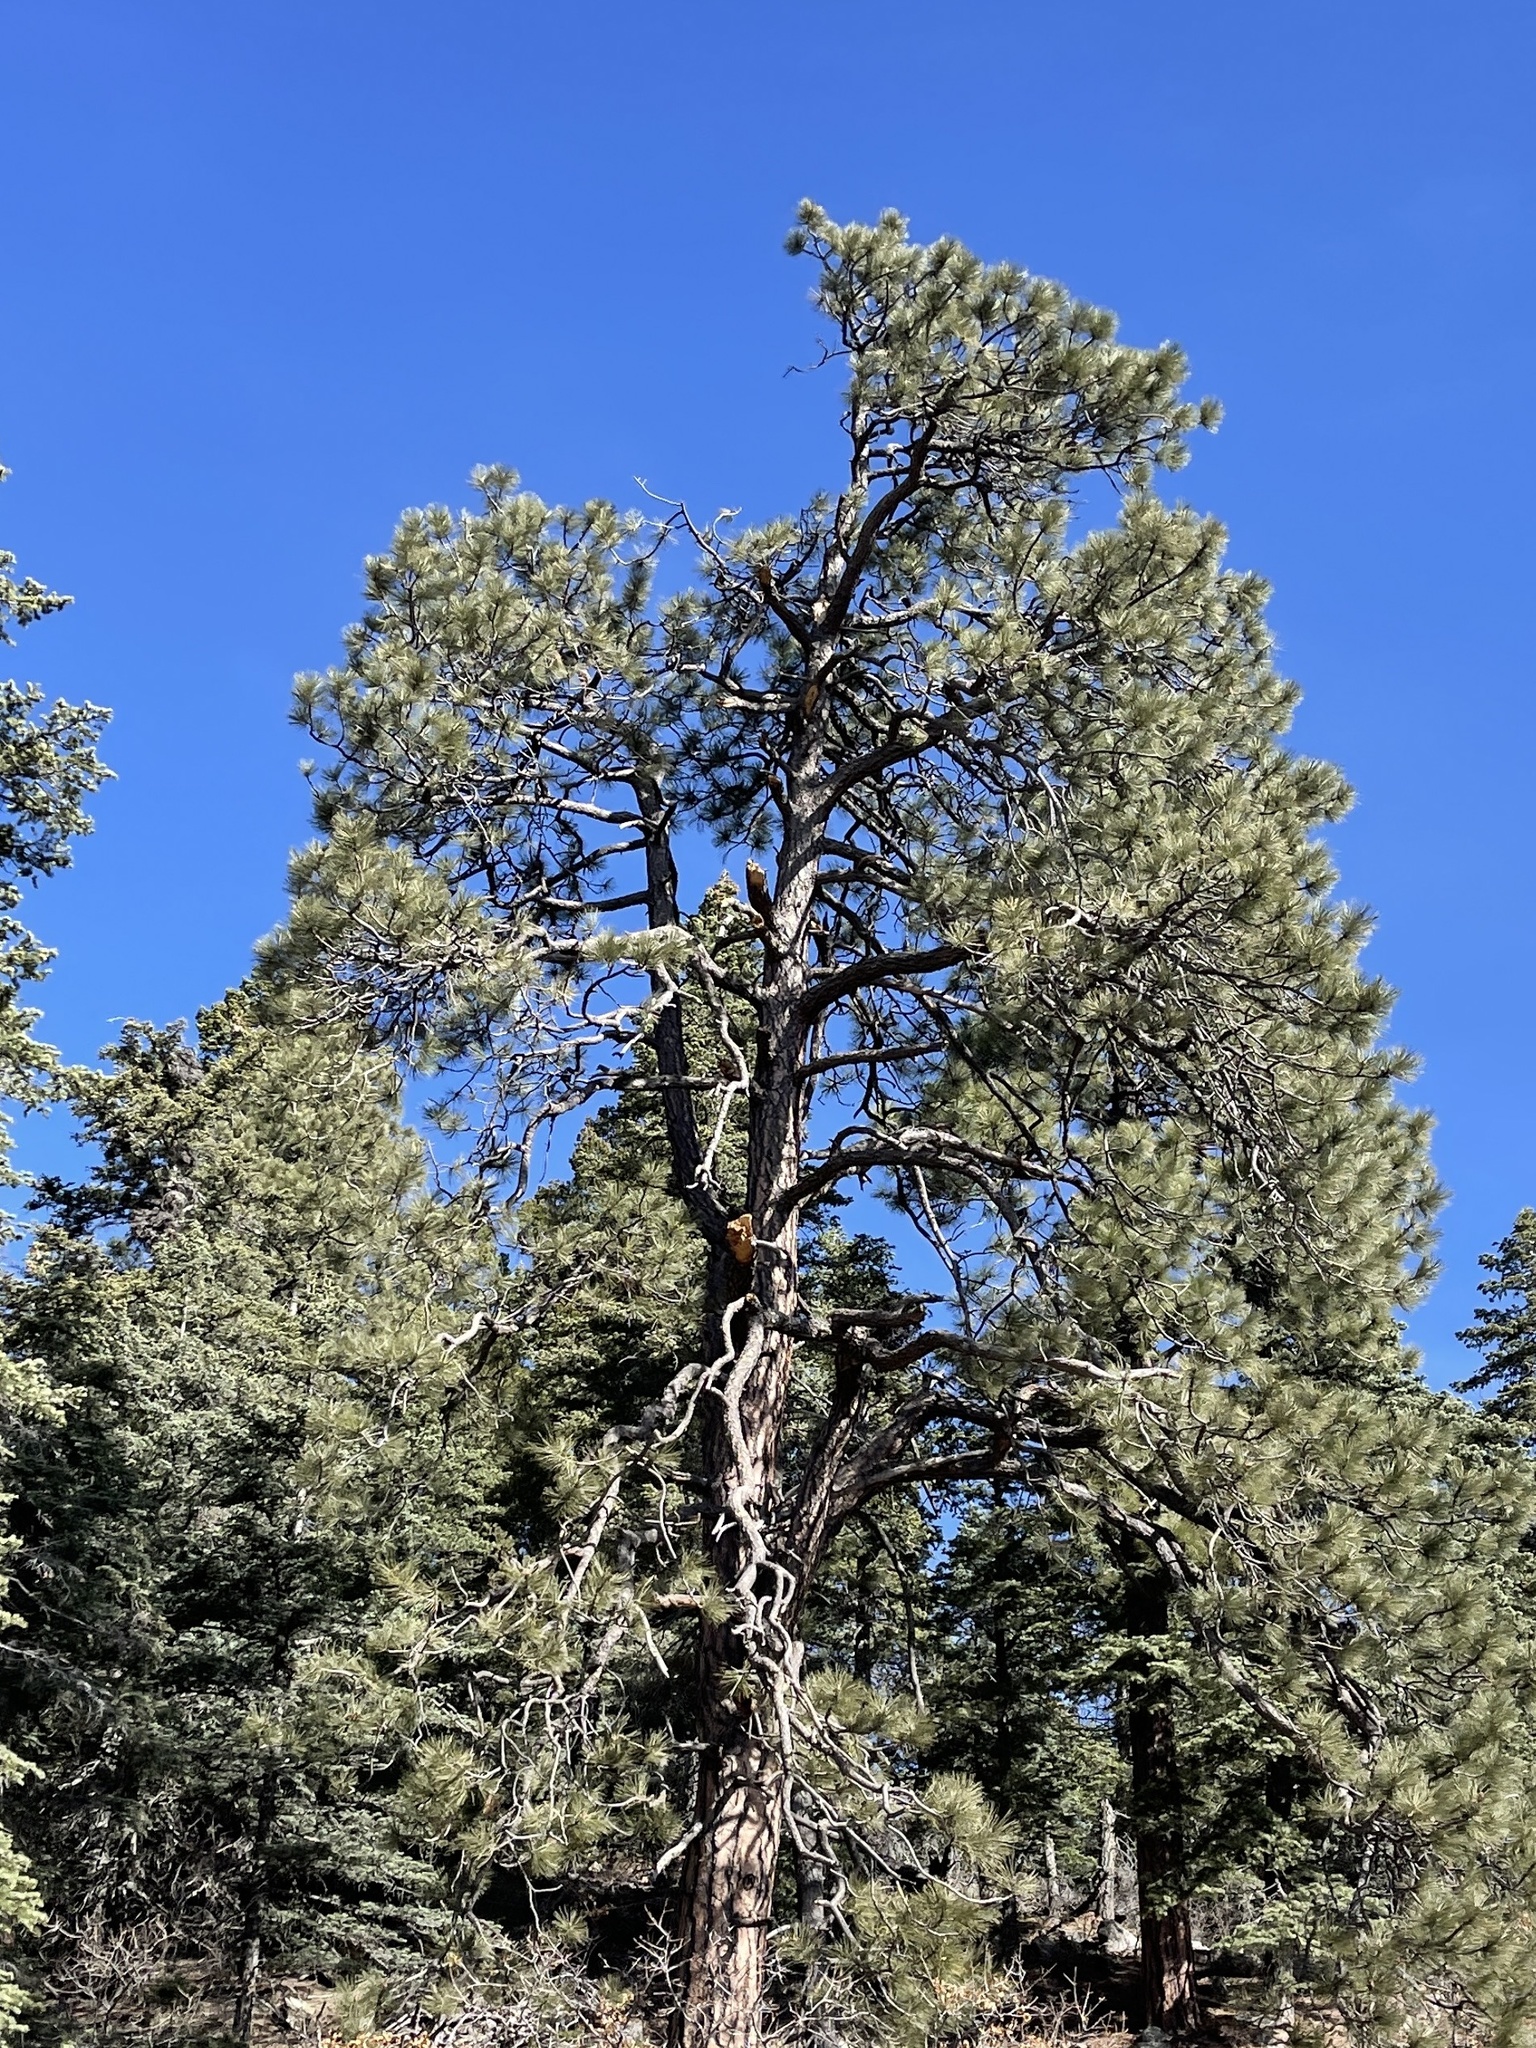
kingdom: Plantae
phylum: Tracheophyta
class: Pinopsida
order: Pinales
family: Pinaceae
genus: Pinus
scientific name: Pinus ponderosa
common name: Western yellow-pine
